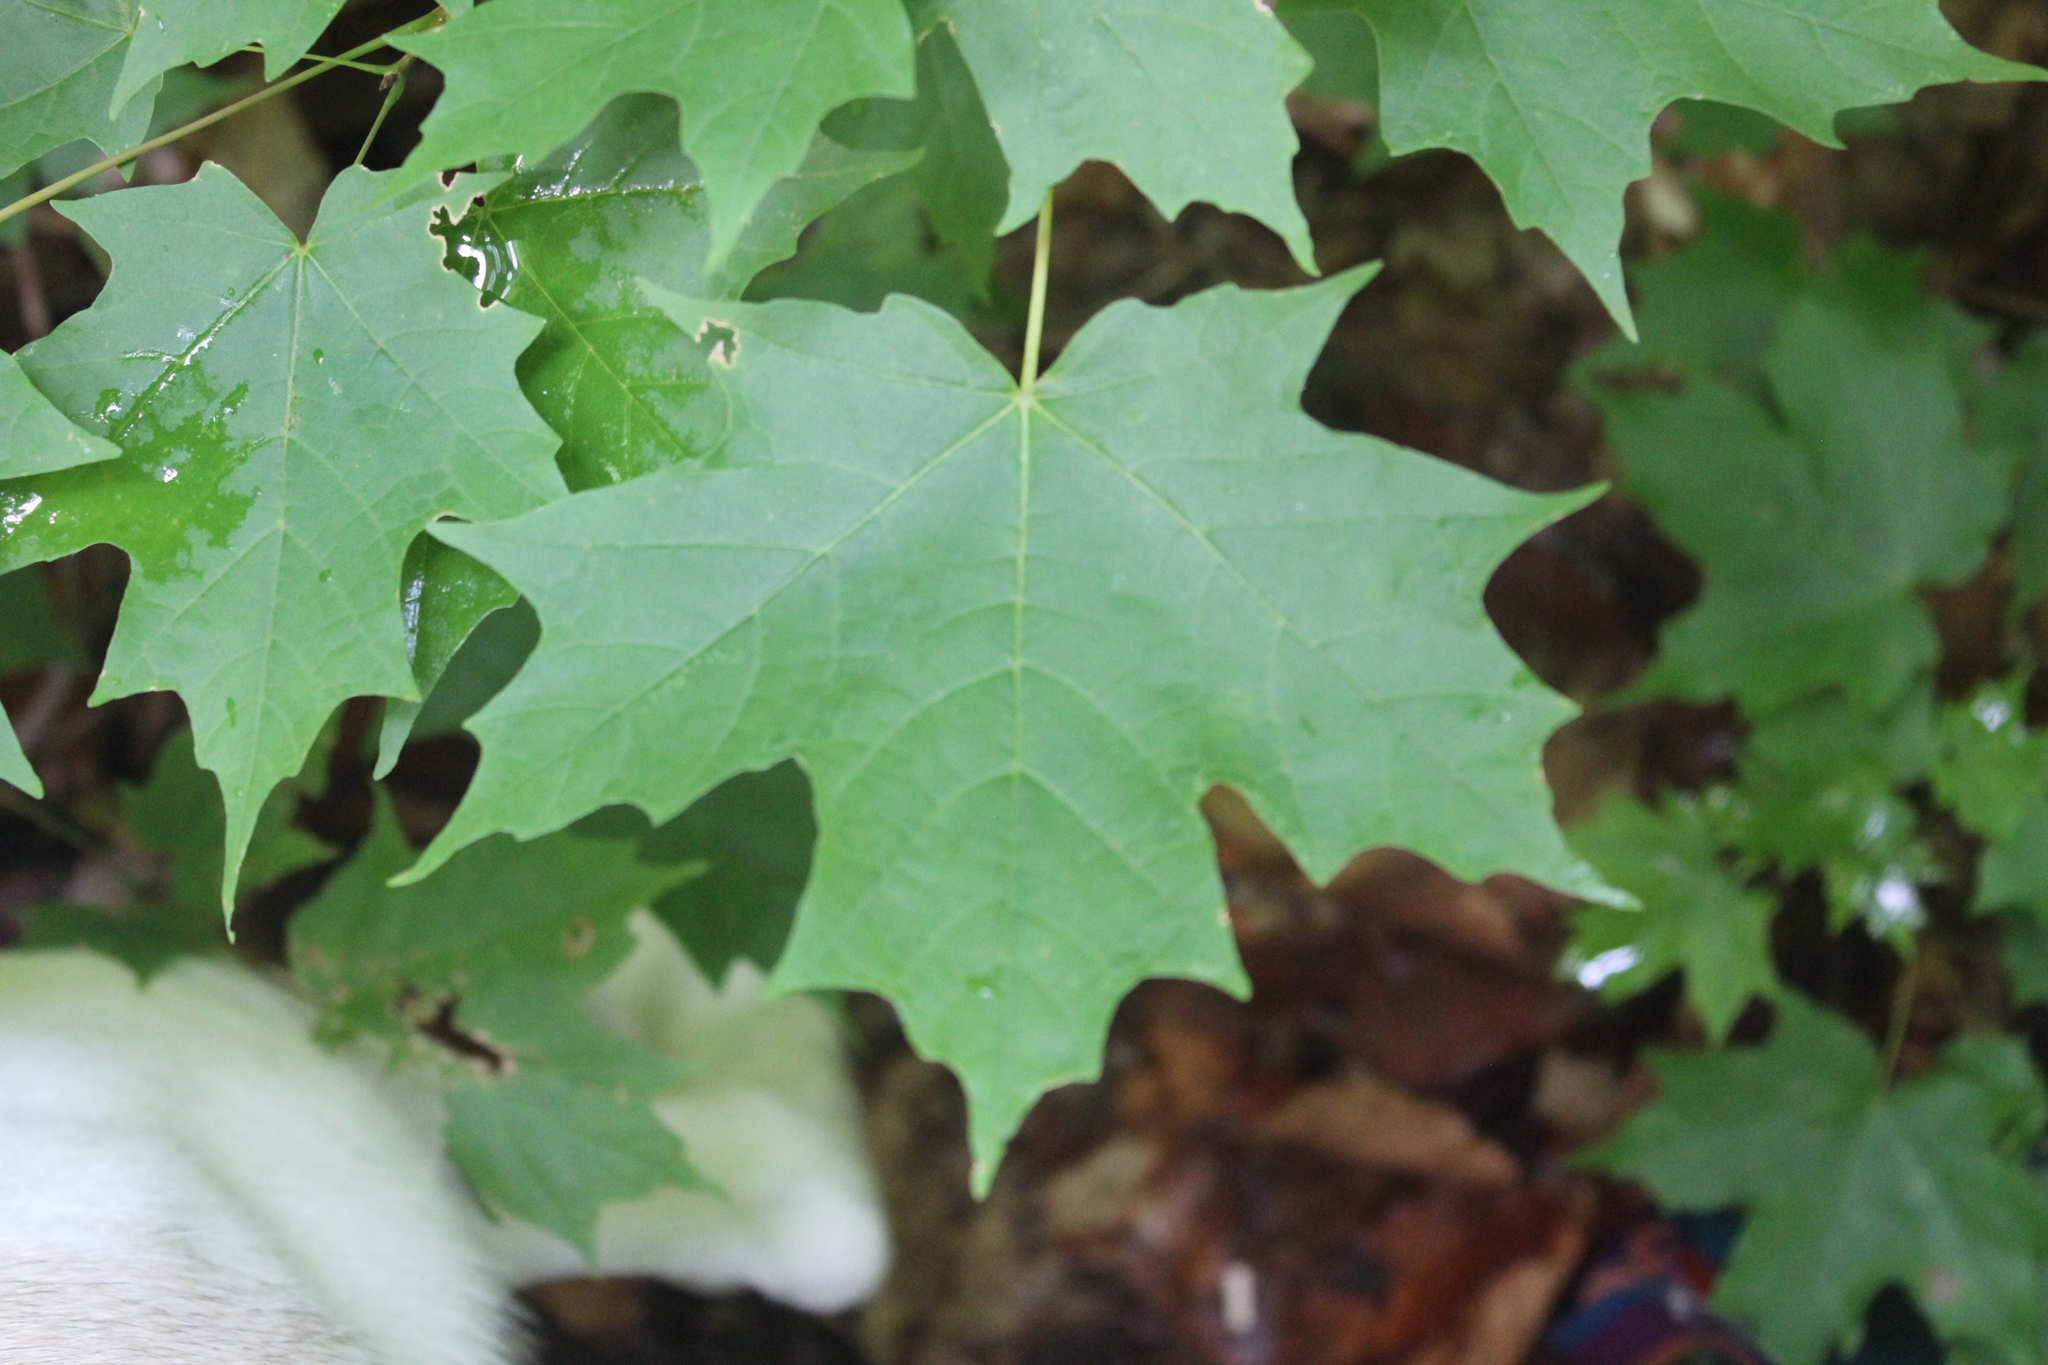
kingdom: Plantae
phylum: Tracheophyta
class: Magnoliopsida
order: Sapindales
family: Sapindaceae
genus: Acer
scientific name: Acer saccharum
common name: Sugar maple
